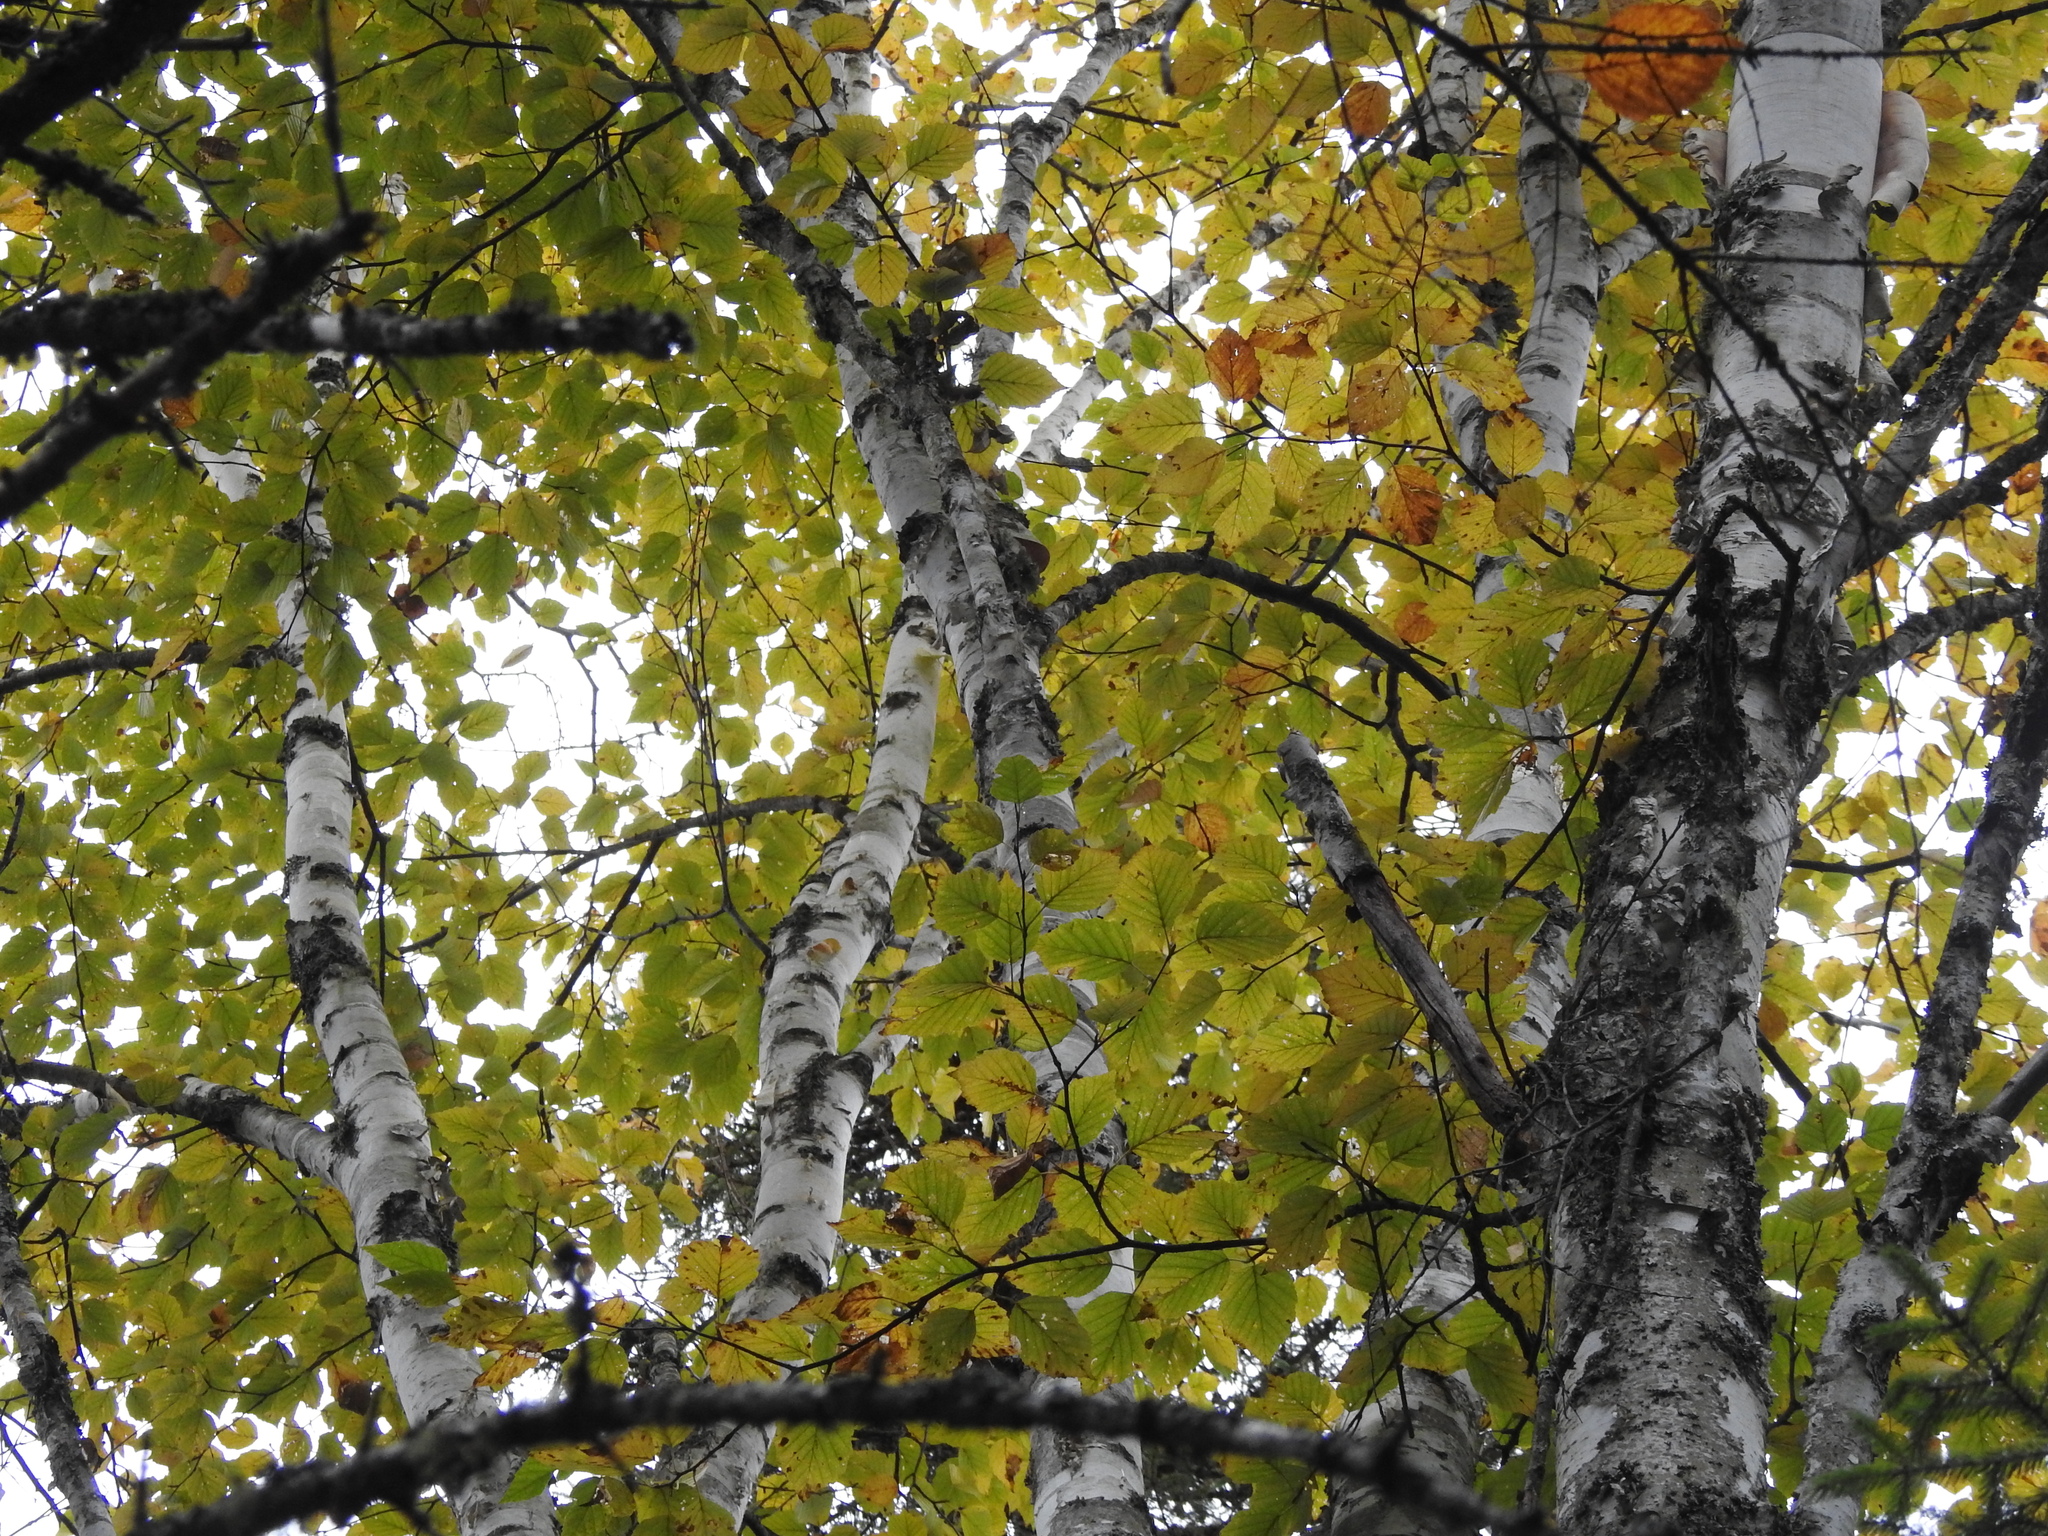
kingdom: Plantae
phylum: Tracheophyta
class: Magnoliopsida
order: Fagales
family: Betulaceae
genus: Betula
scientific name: Betula papyrifera
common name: Paper birch
